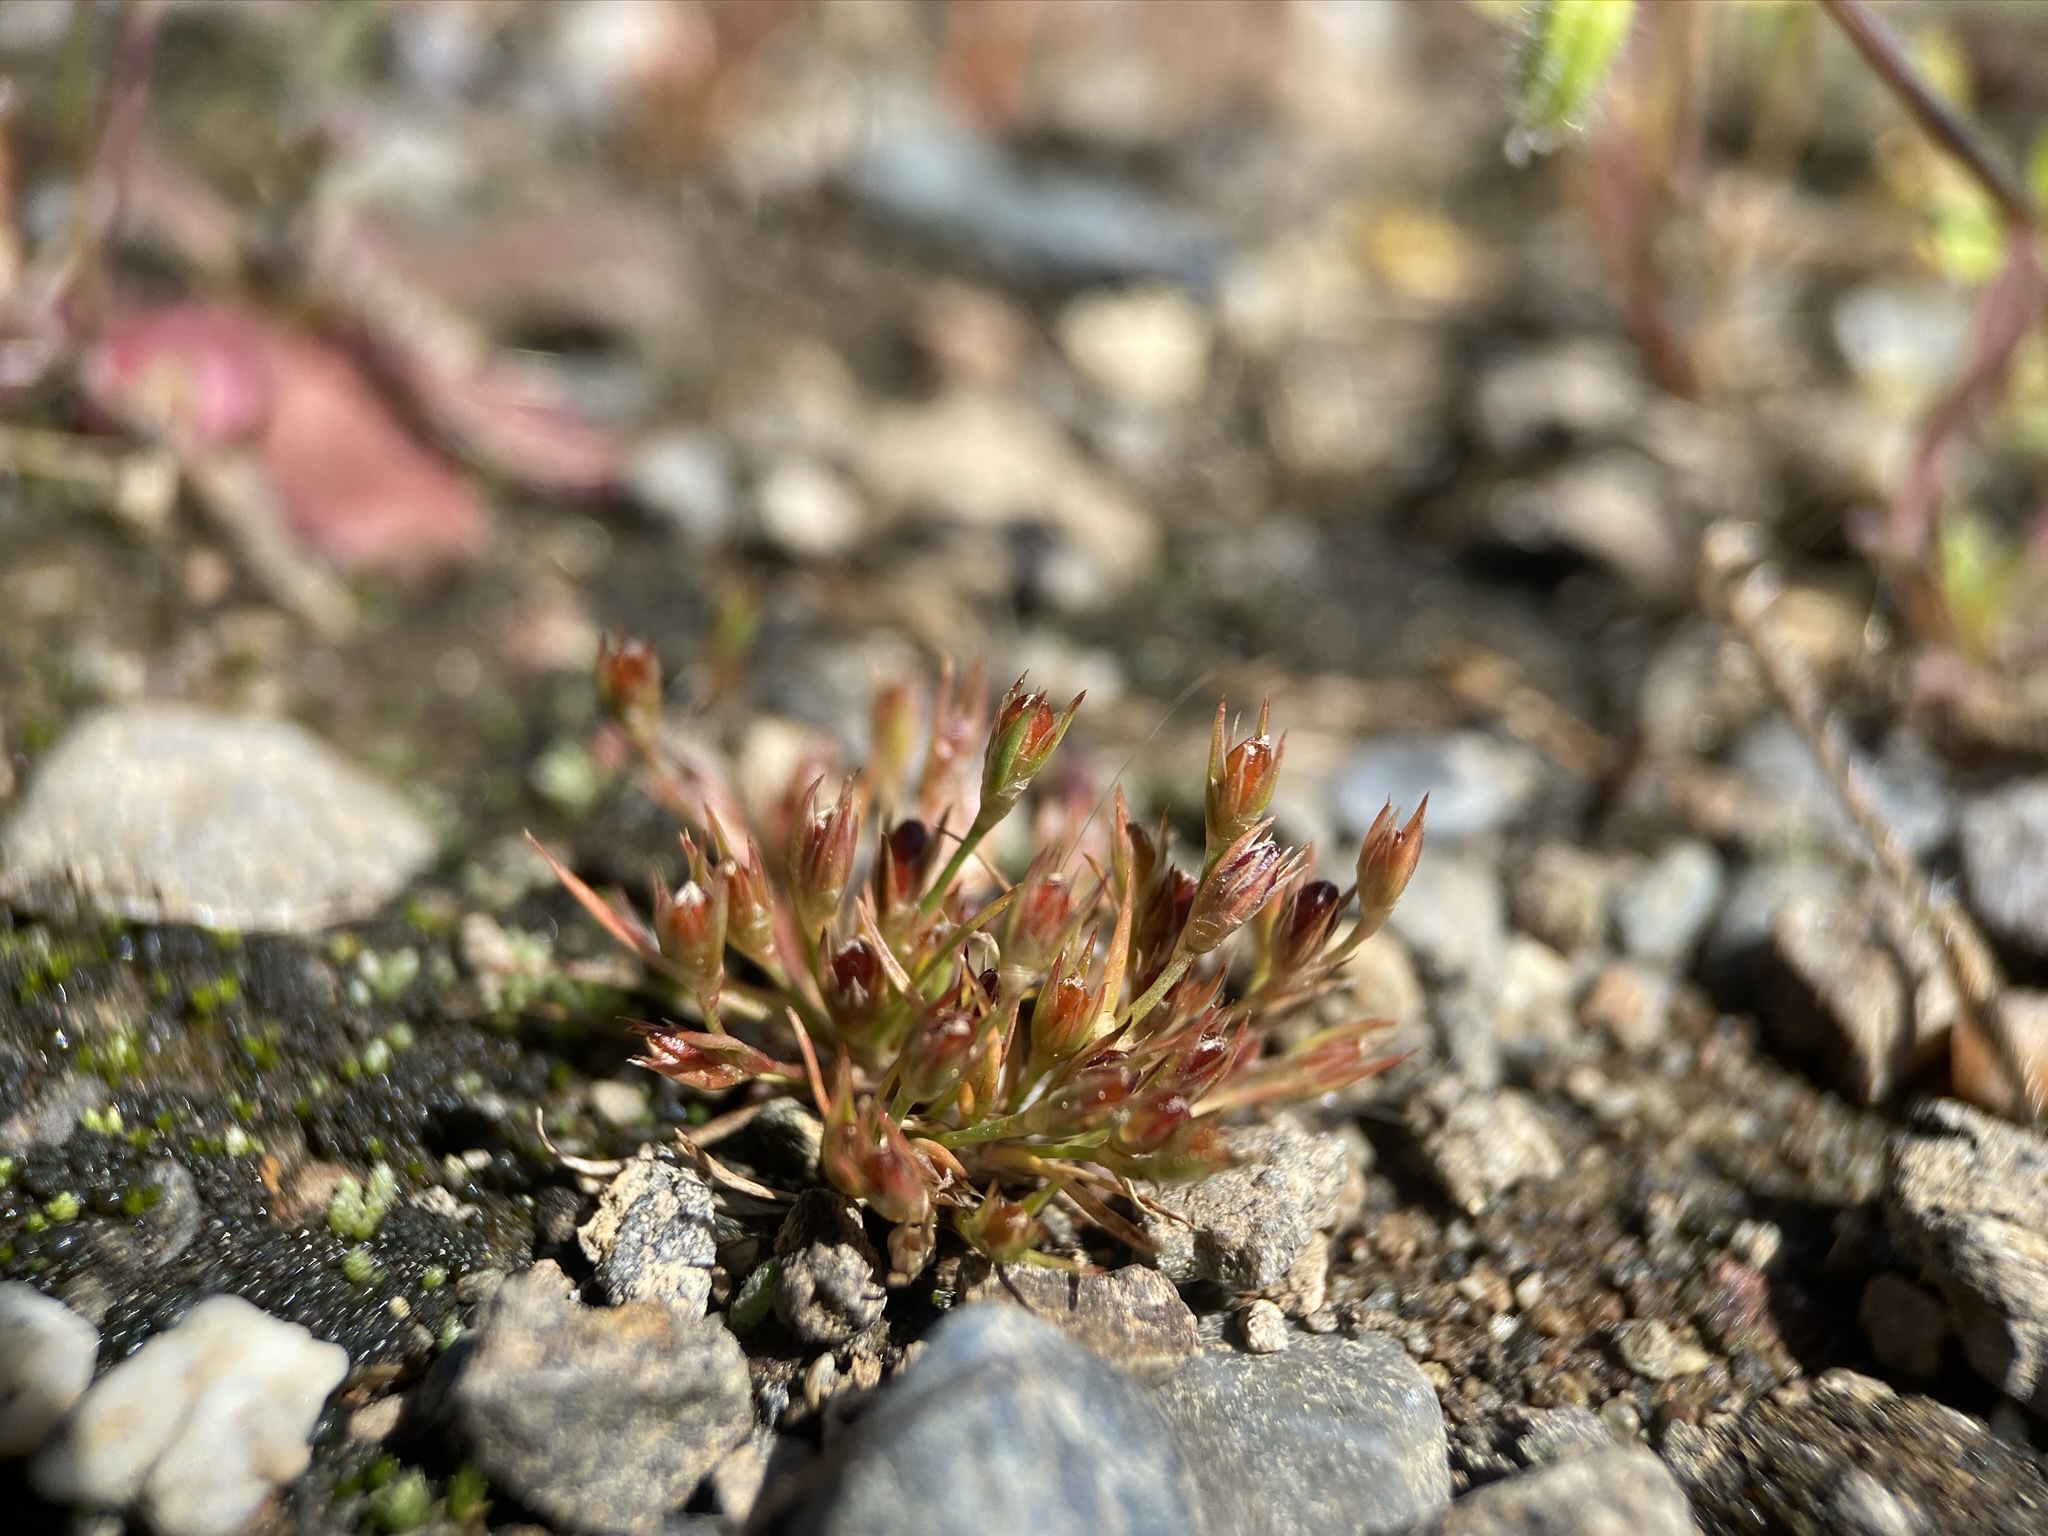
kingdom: Plantae
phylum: Tracheophyta
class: Liliopsida
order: Poales
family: Juncaceae
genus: Juncus
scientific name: Juncus bufonius
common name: Toad rush
